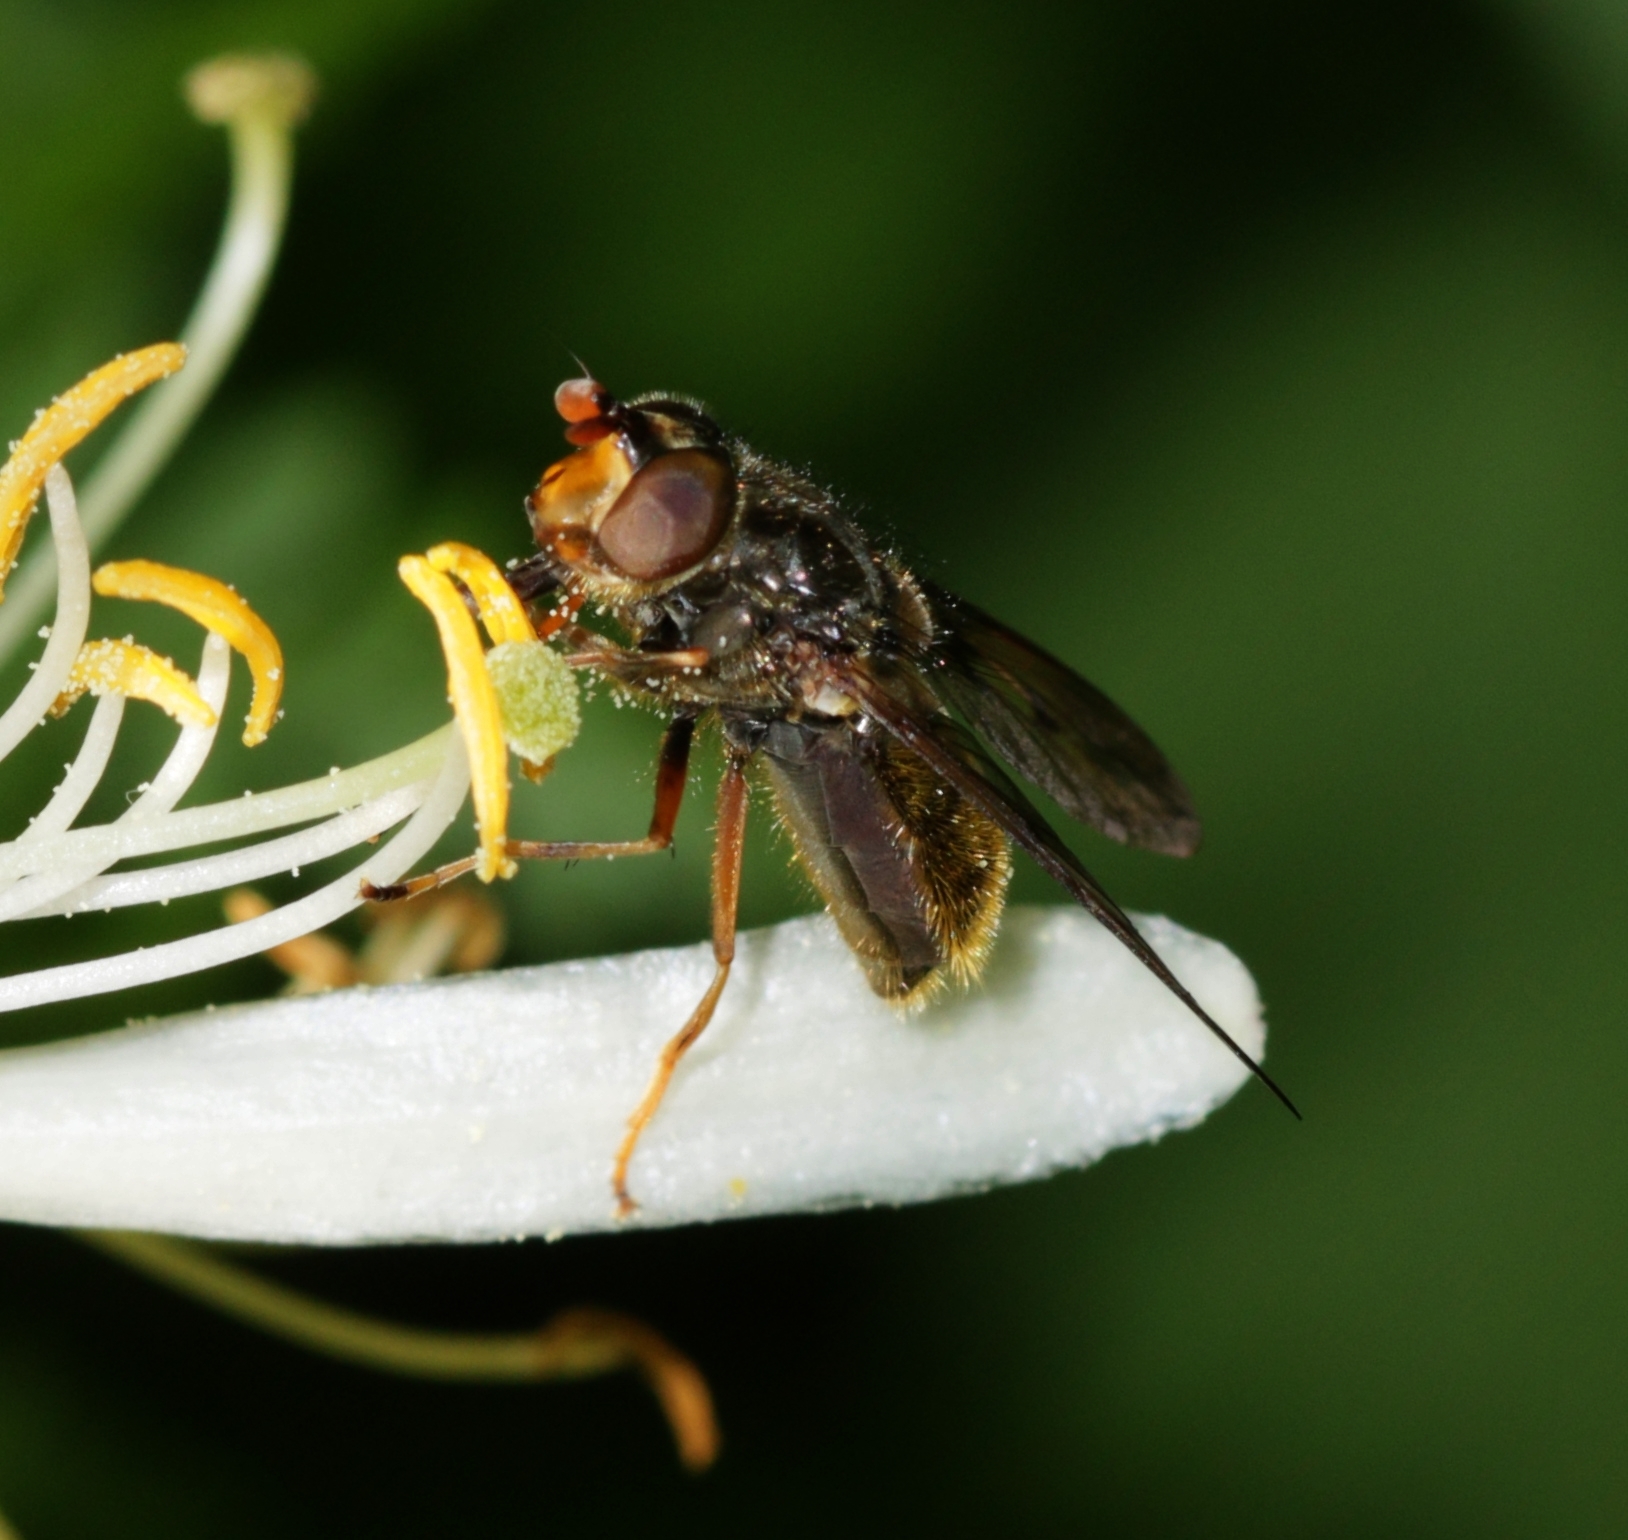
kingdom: Animalia
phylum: Arthropoda
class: Insecta
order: Diptera
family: Syrphidae
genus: Ferdinandea
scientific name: Ferdinandea cuprea
